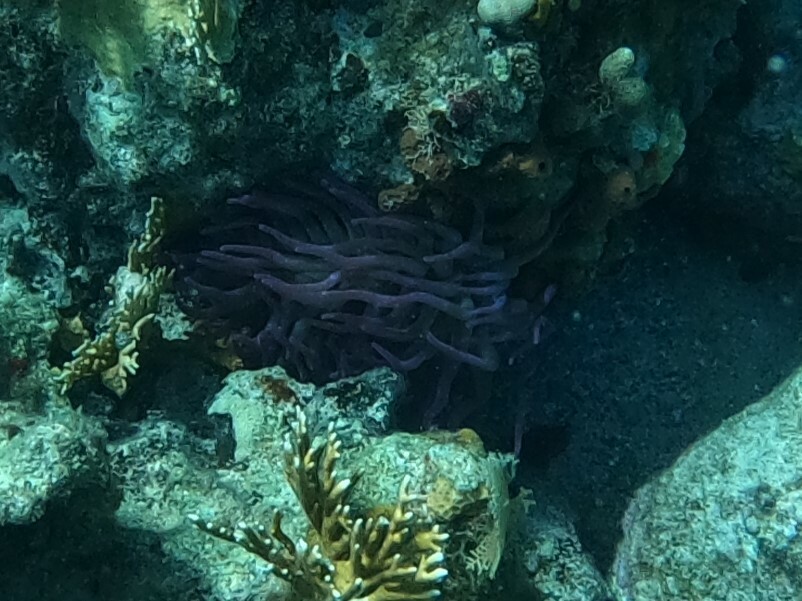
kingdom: Animalia
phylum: Cnidaria
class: Anthozoa
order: Actiniaria
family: Actiniidae
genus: Condylactis
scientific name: Condylactis gigantea
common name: Giant caribbean anemone
